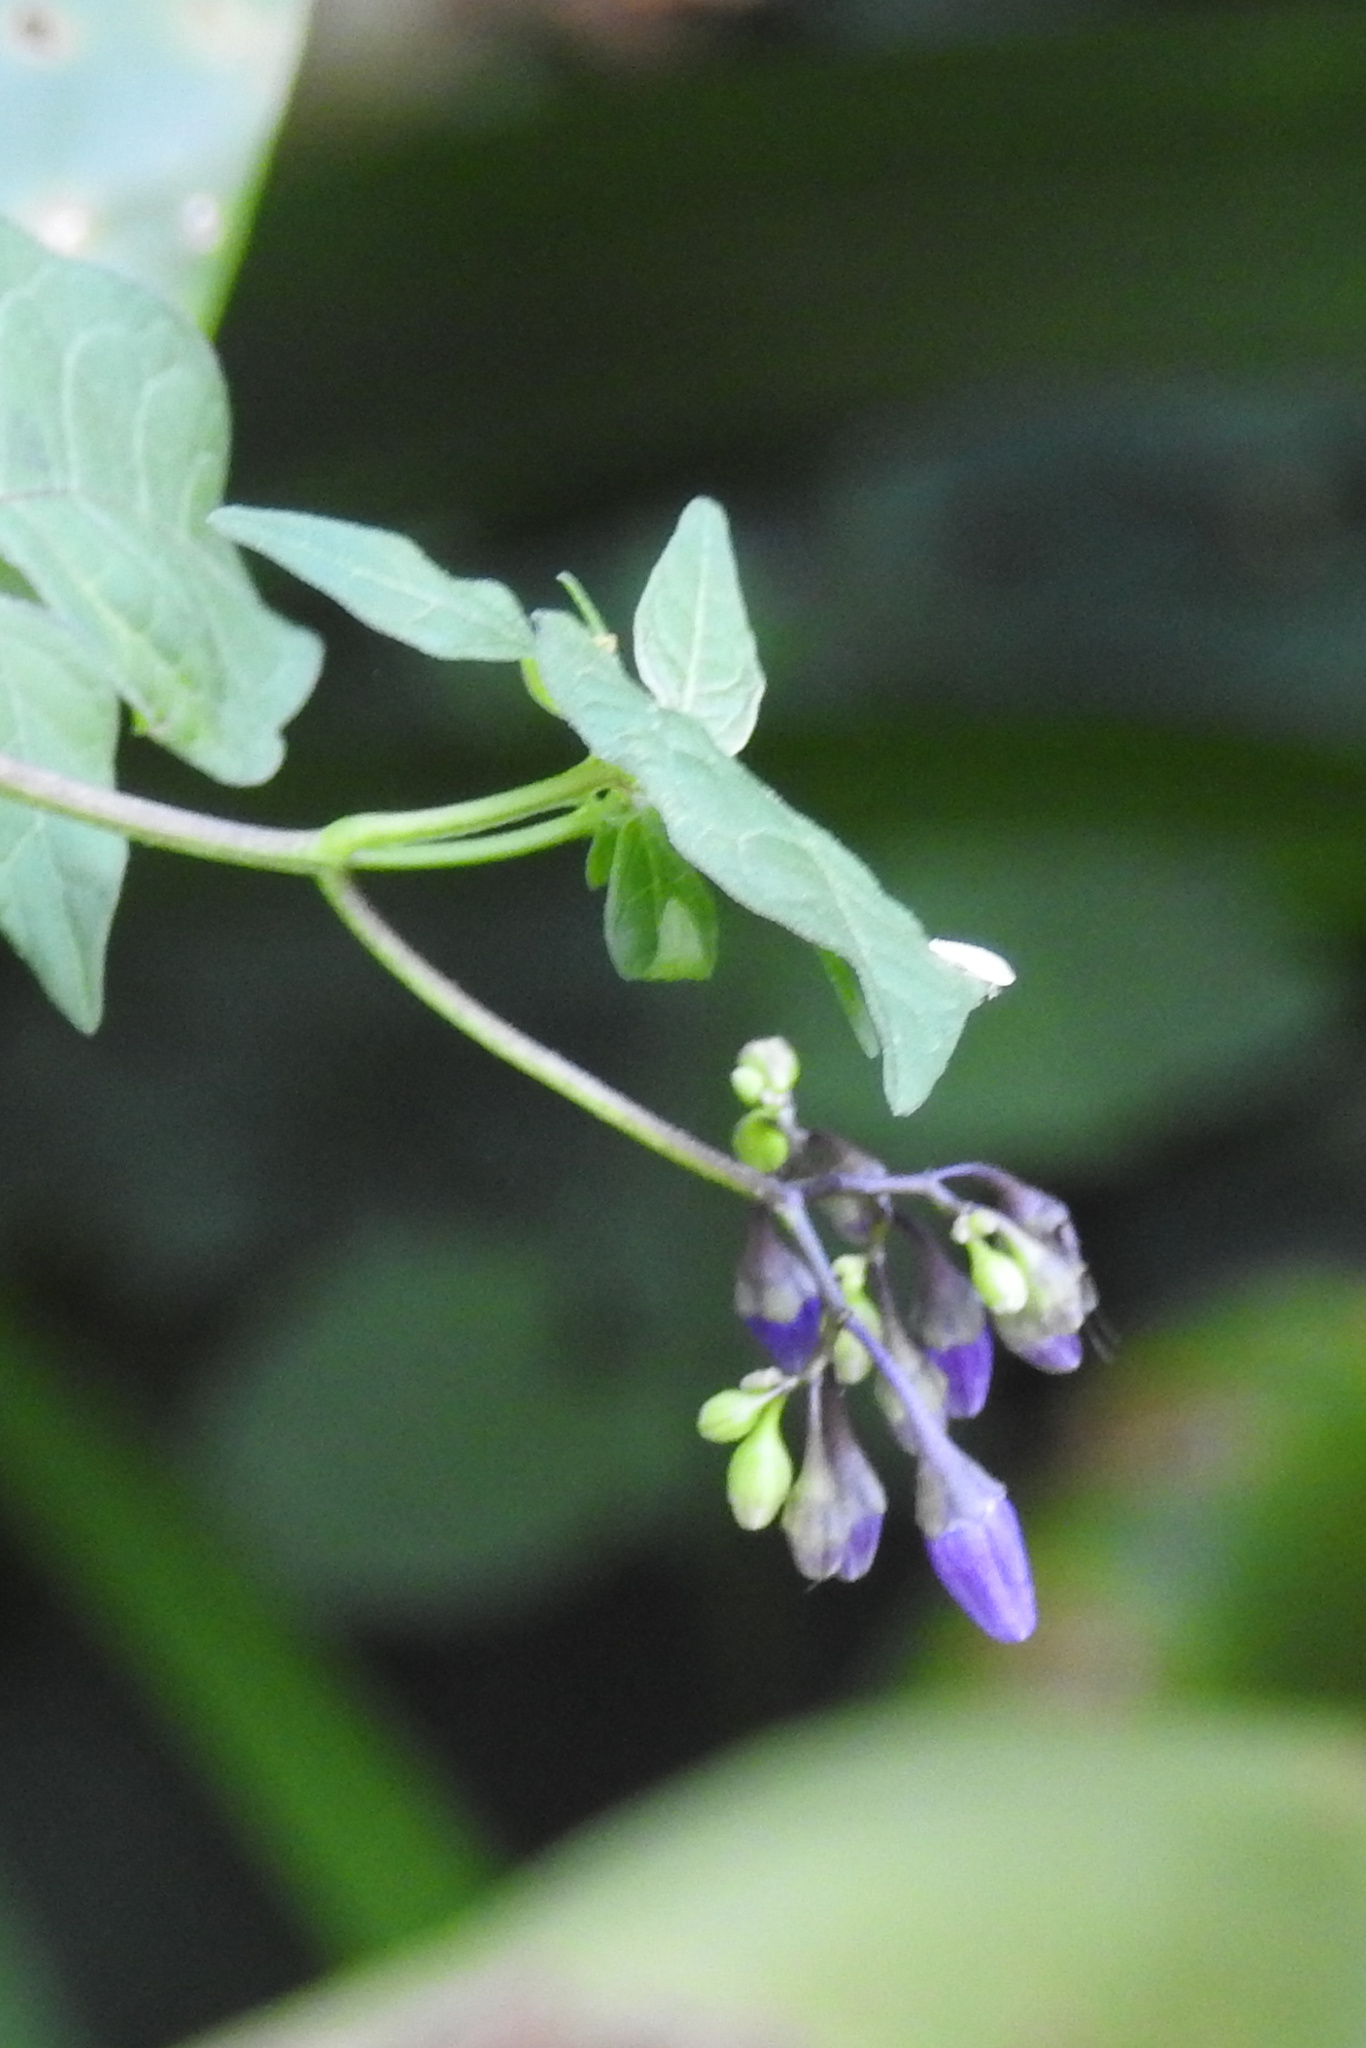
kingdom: Plantae
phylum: Tracheophyta
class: Magnoliopsida
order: Solanales
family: Solanaceae
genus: Solanum
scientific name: Solanum dulcamara
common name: Climbing nightshade
